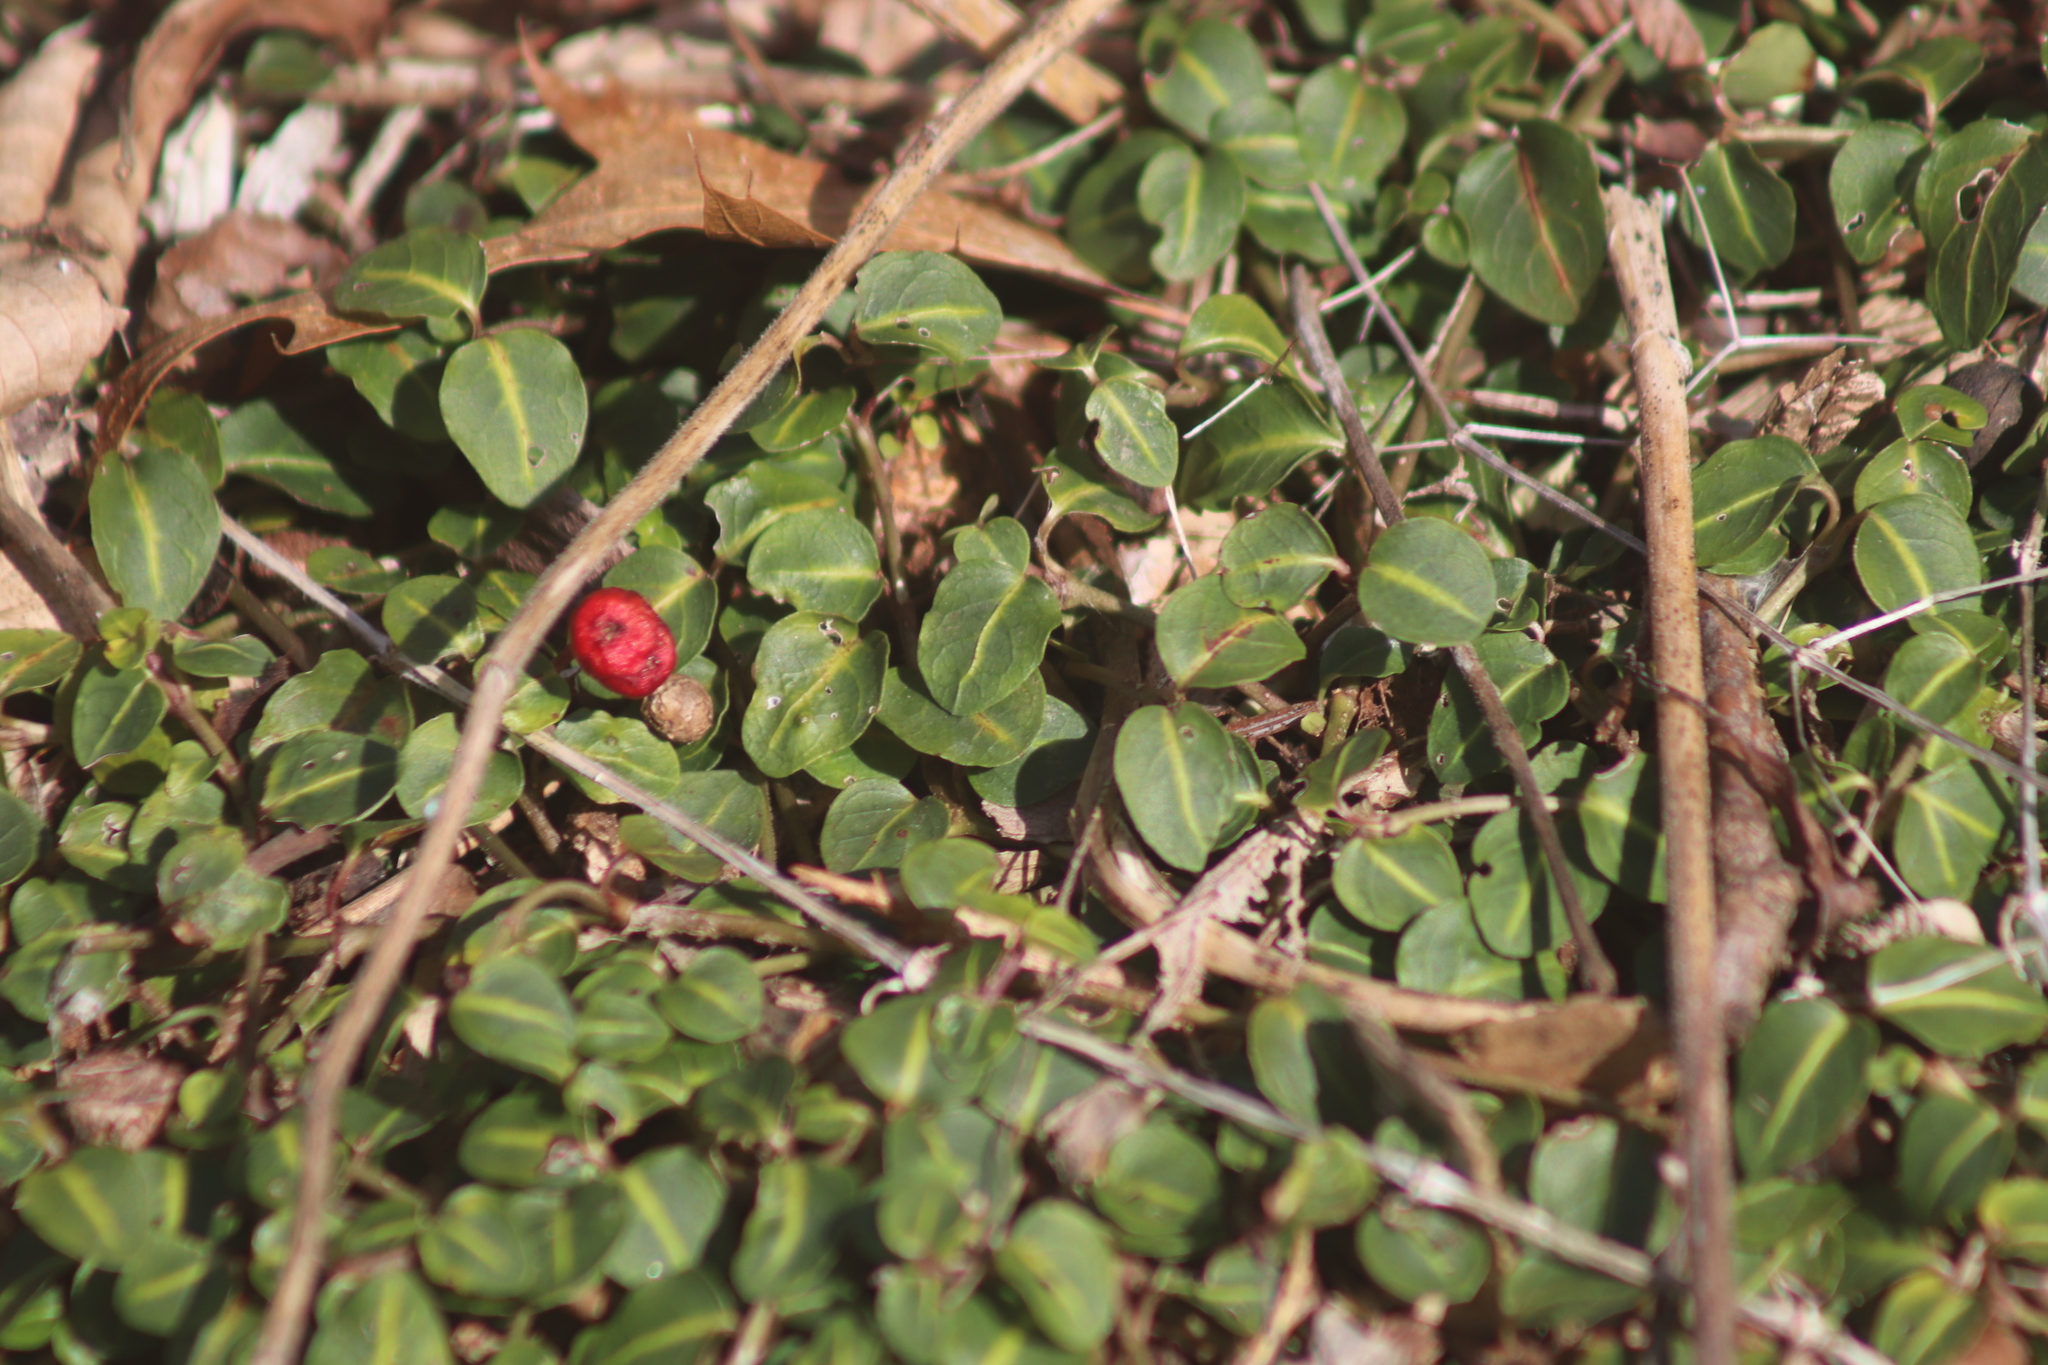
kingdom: Plantae
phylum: Tracheophyta
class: Magnoliopsida
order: Gentianales
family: Rubiaceae
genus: Mitchella
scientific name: Mitchella repens
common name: Partridge-berry
